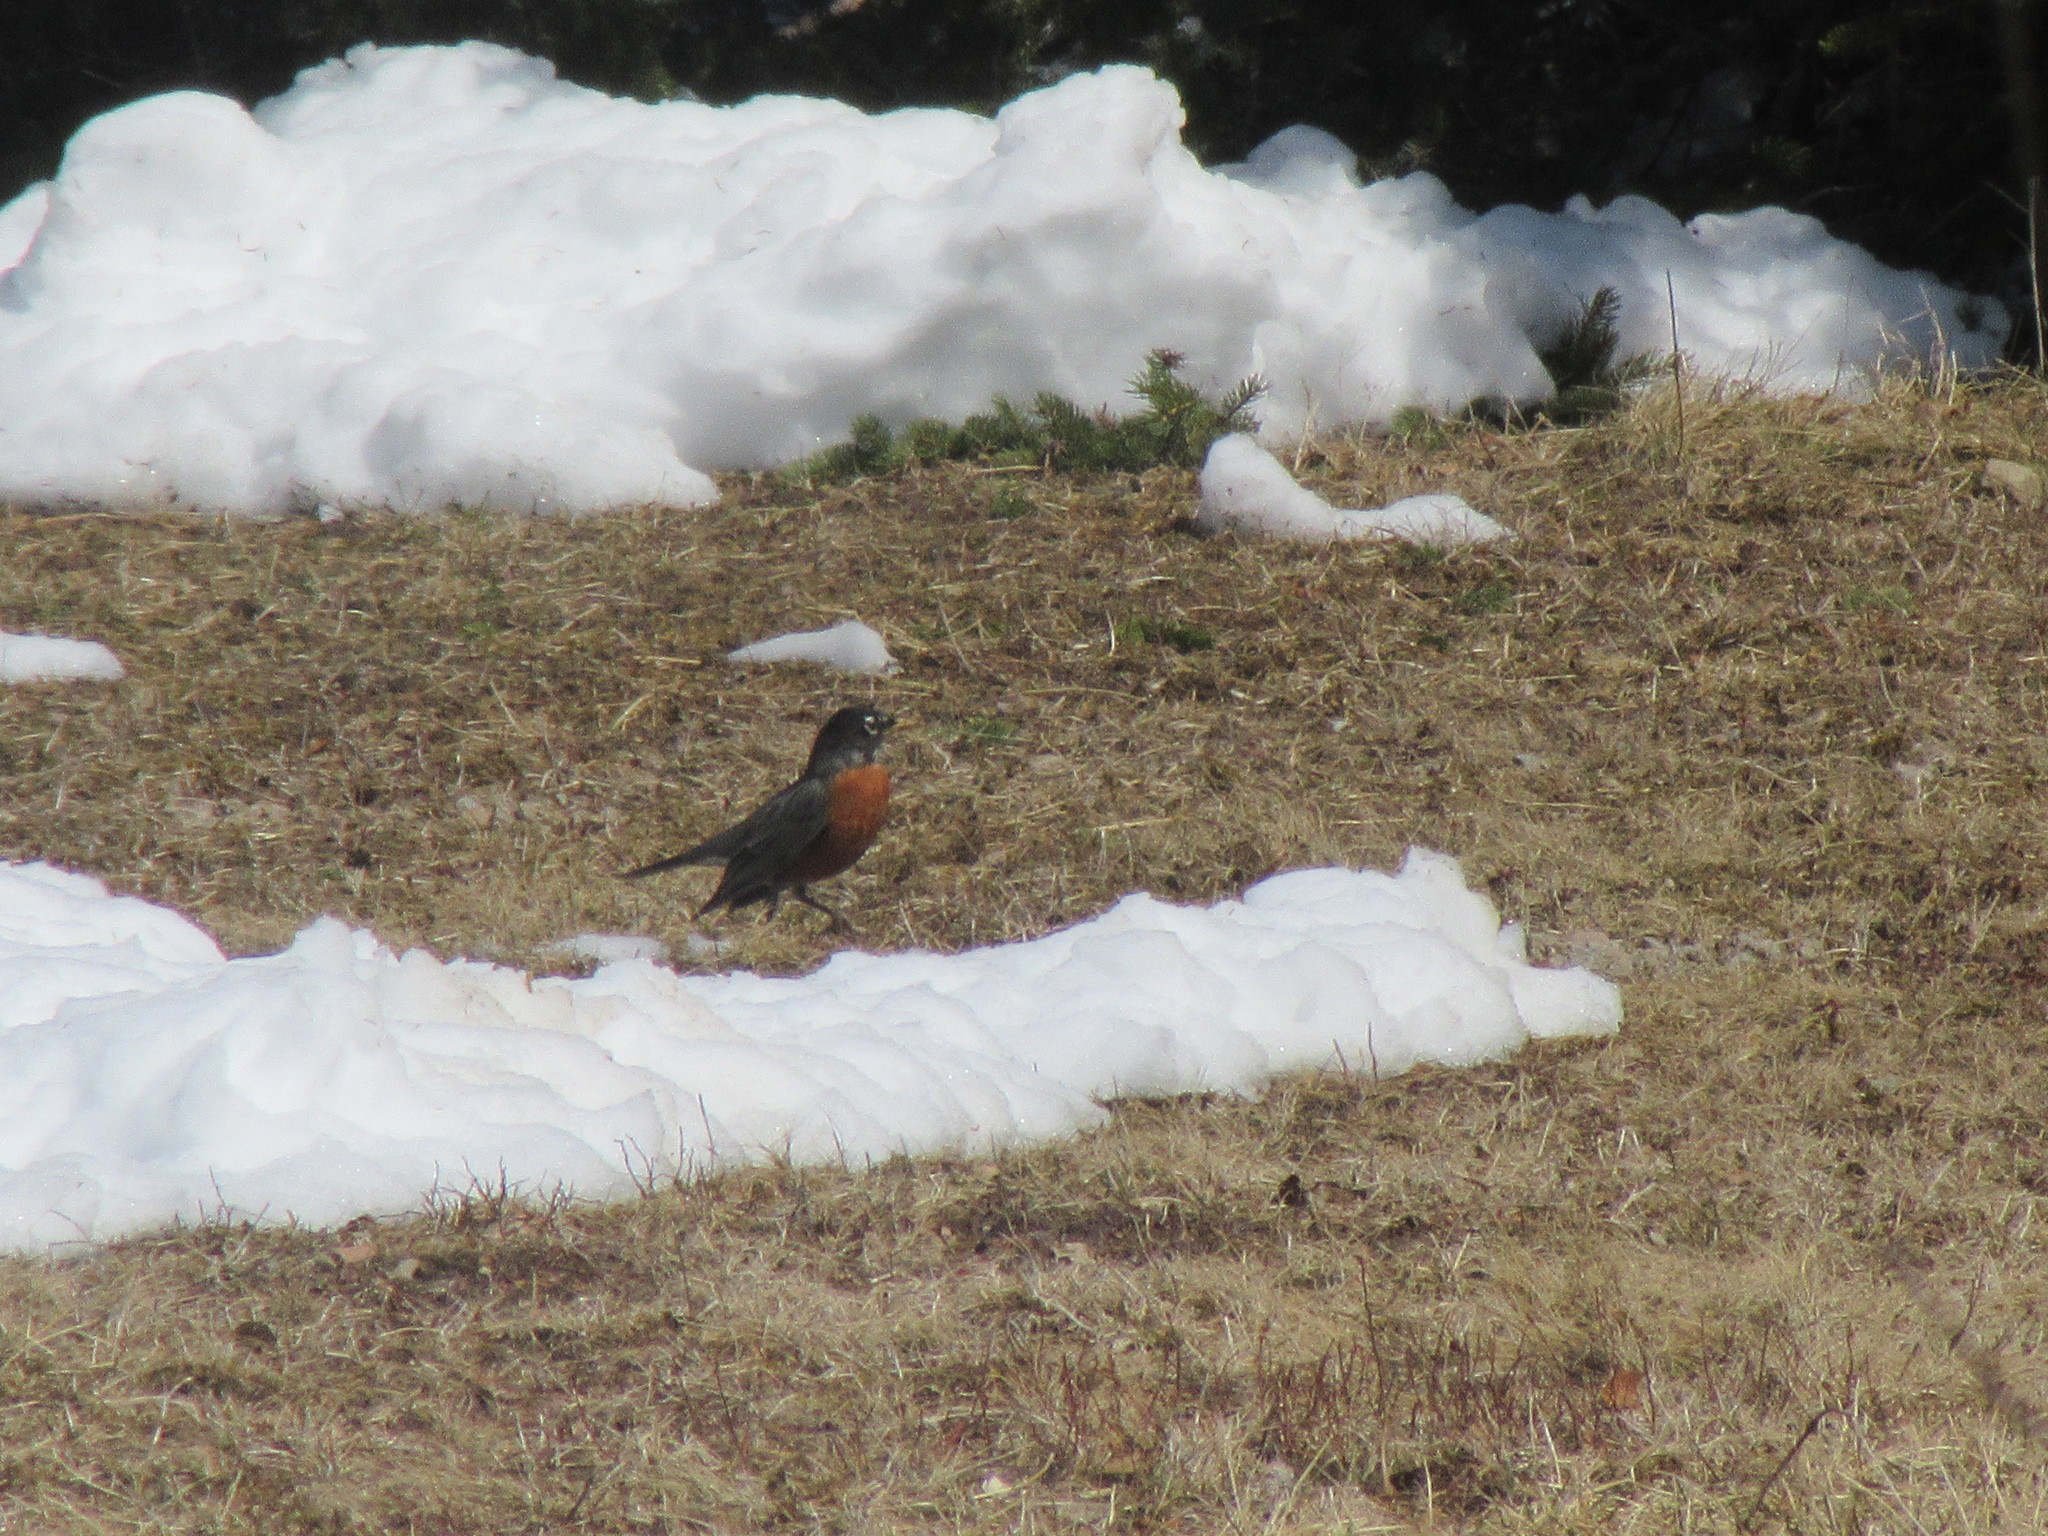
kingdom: Animalia
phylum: Chordata
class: Aves
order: Passeriformes
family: Turdidae
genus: Turdus
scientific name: Turdus migratorius
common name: American robin
